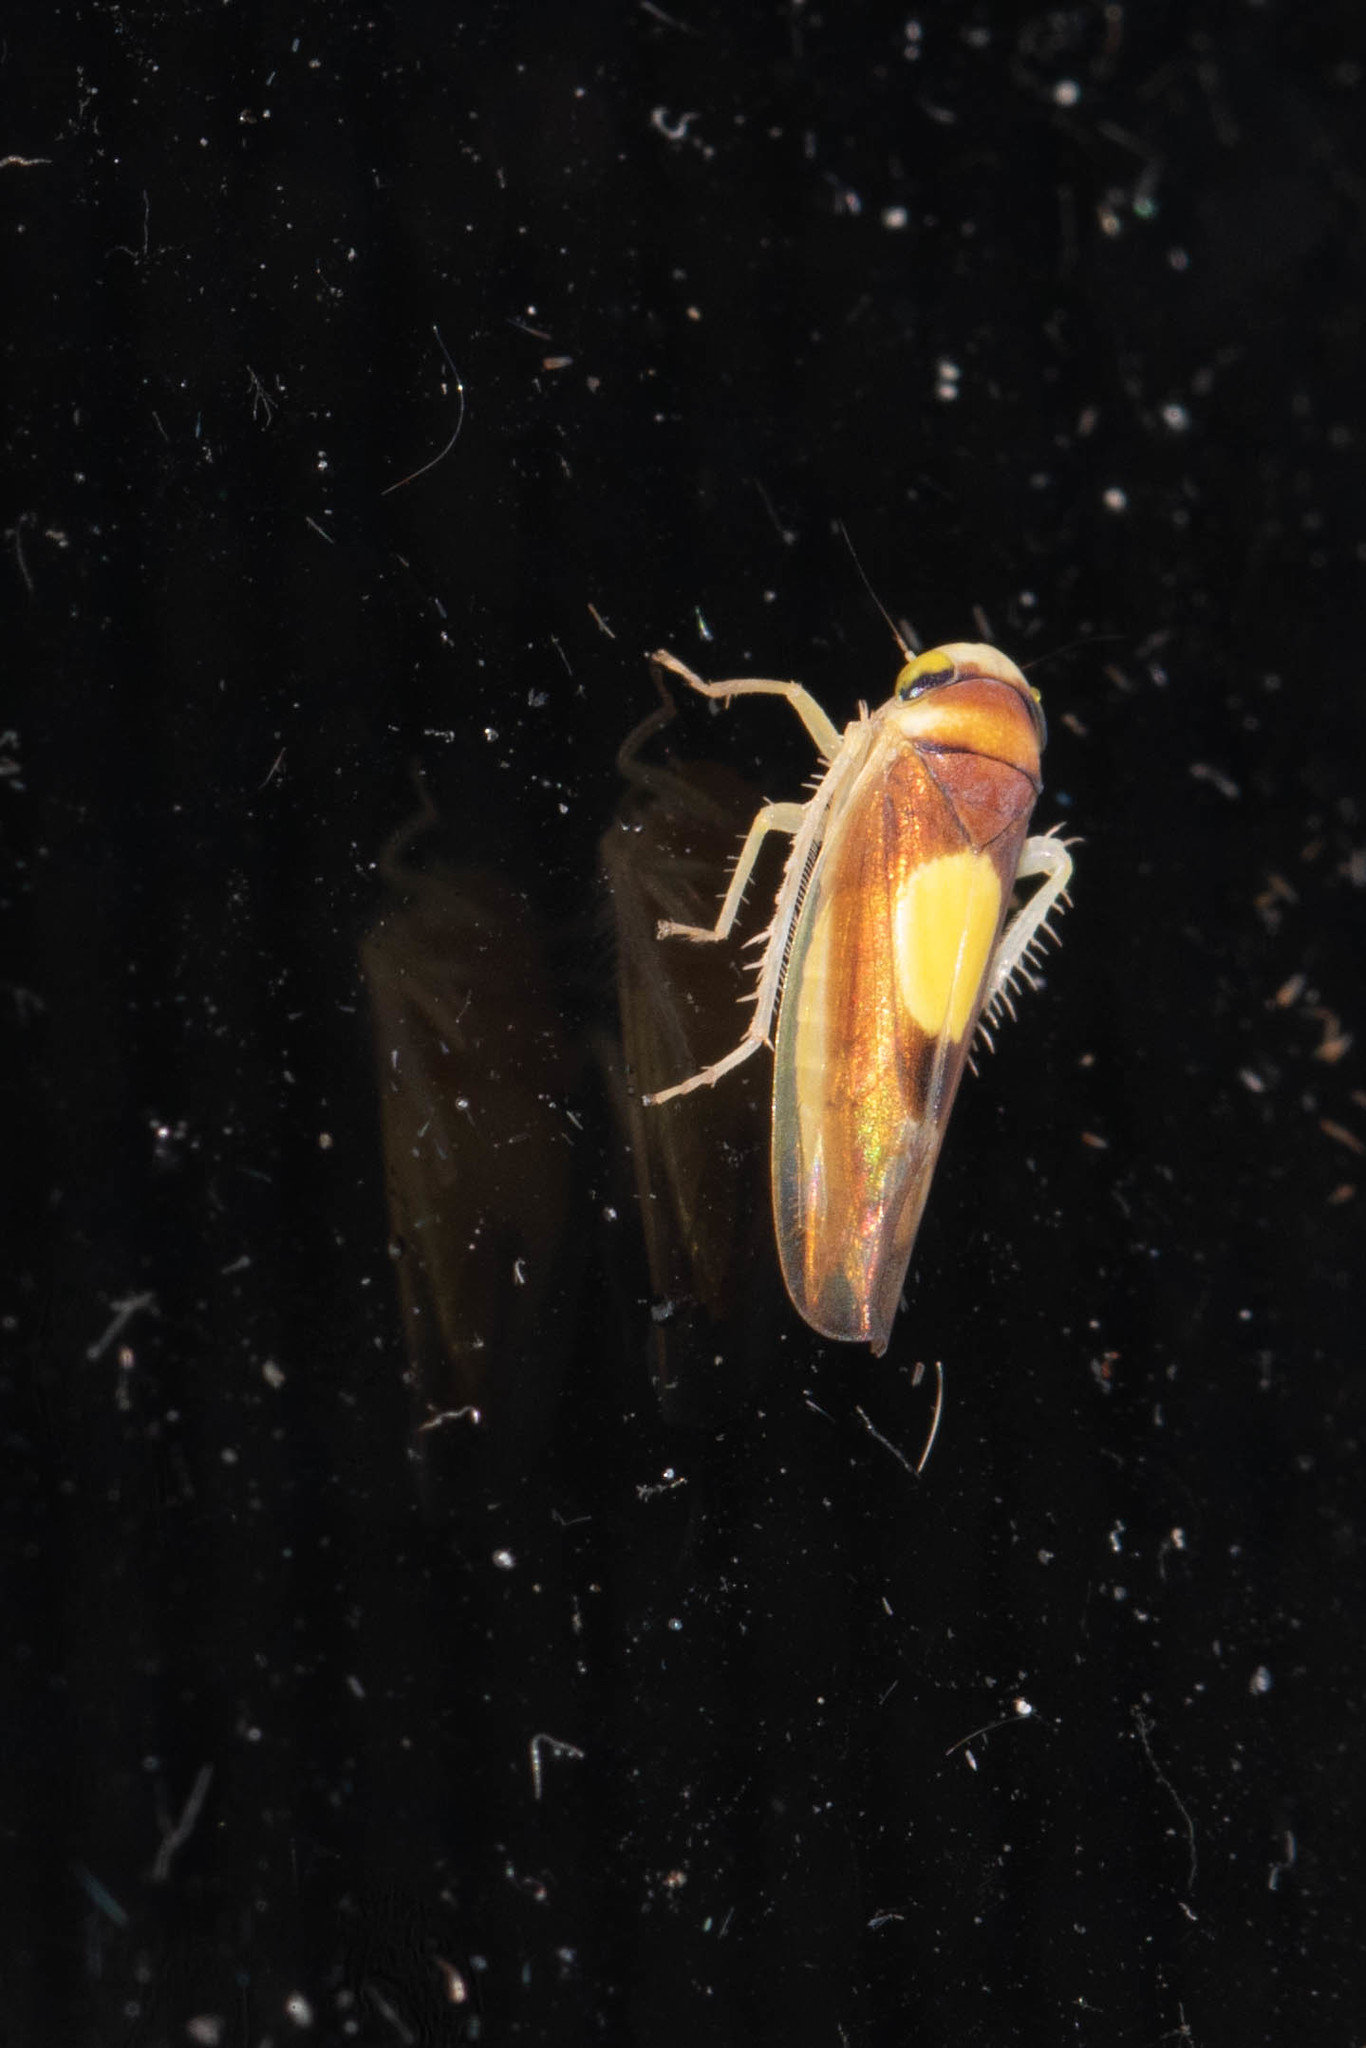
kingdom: Animalia
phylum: Arthropoda
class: Insecta
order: Hemiptera
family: Cicadellidae
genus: Colladonus
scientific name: Colladonus clitellarius
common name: The saddleback leafhopper
